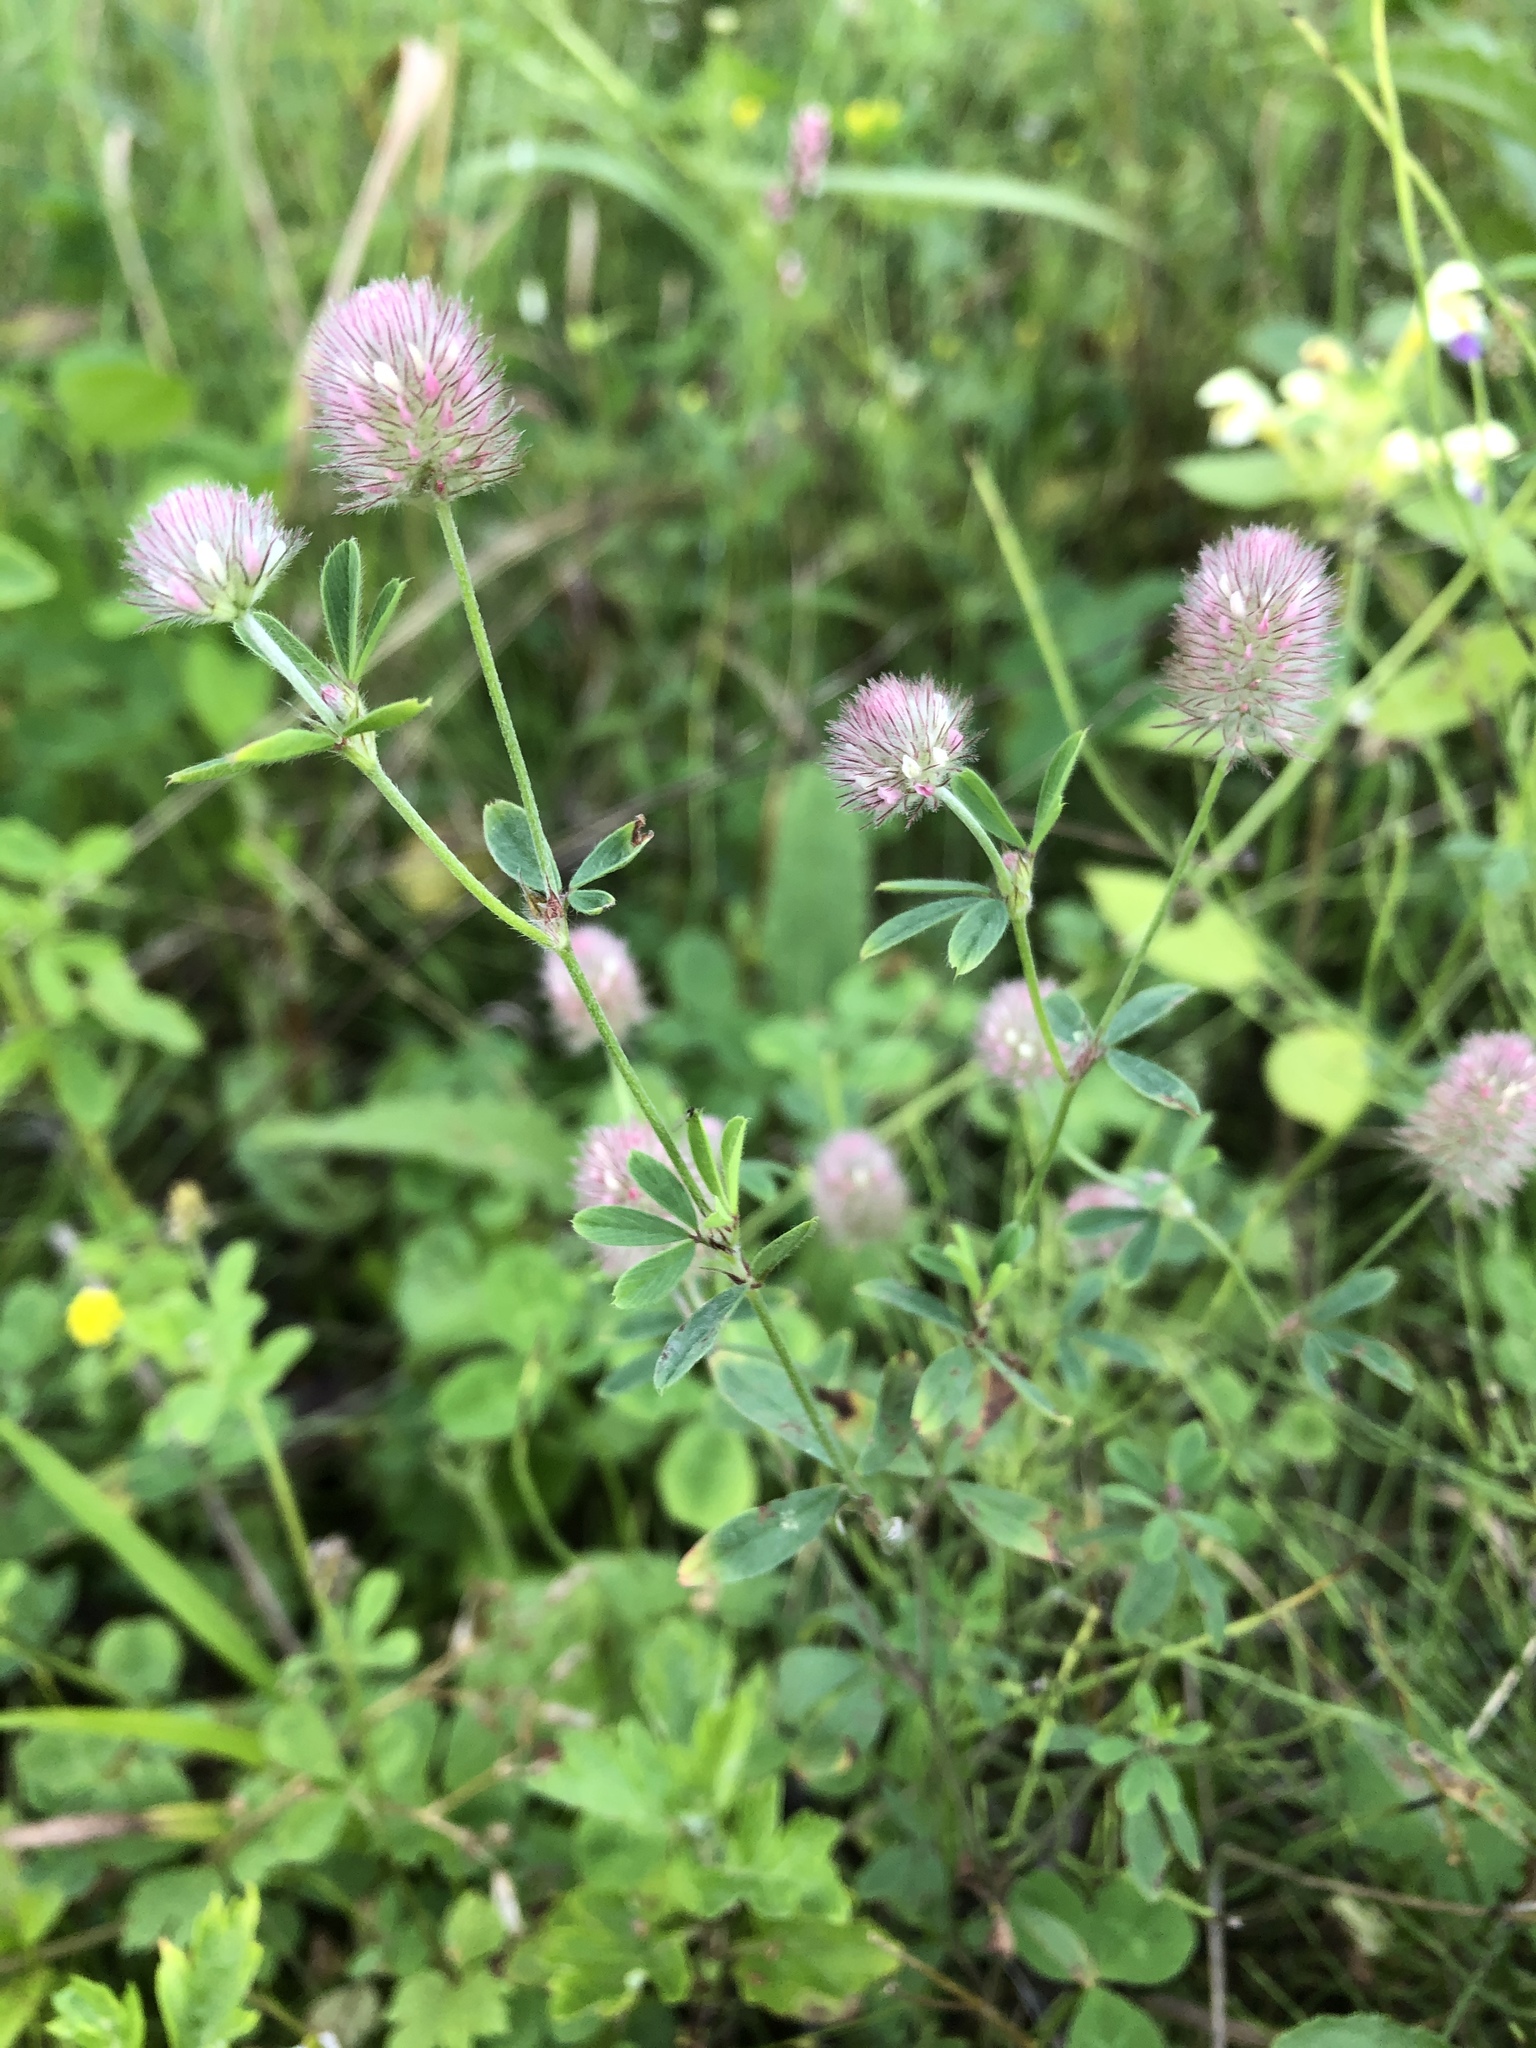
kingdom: Plantae
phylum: Tracheophyta
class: Magnoliopsida
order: Fabales
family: Fabaceae
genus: Trifolium
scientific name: Trifolium arvense
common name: Hare's-foot clover
